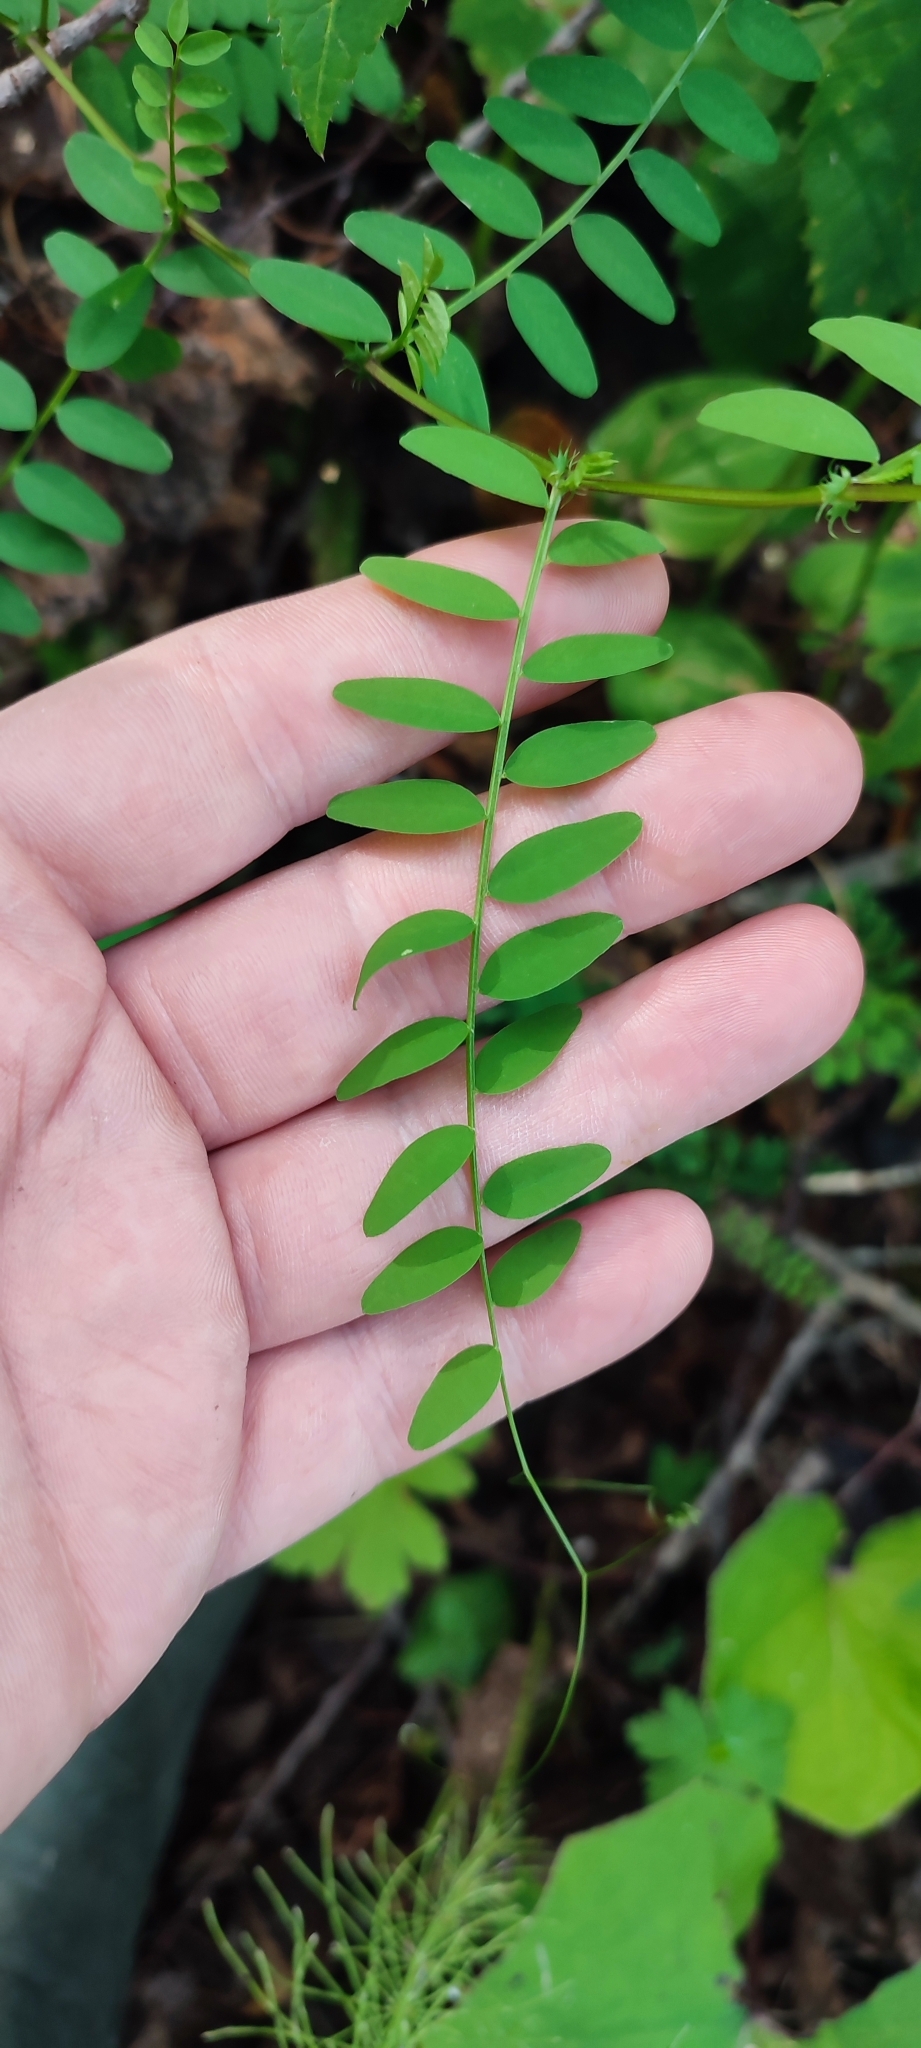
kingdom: Plantae
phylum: Tracheophyta
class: Magnoliopsida
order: Fabales
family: Fabaceae
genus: Vicia
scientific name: Vicia sylvatica
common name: Wood vetch
